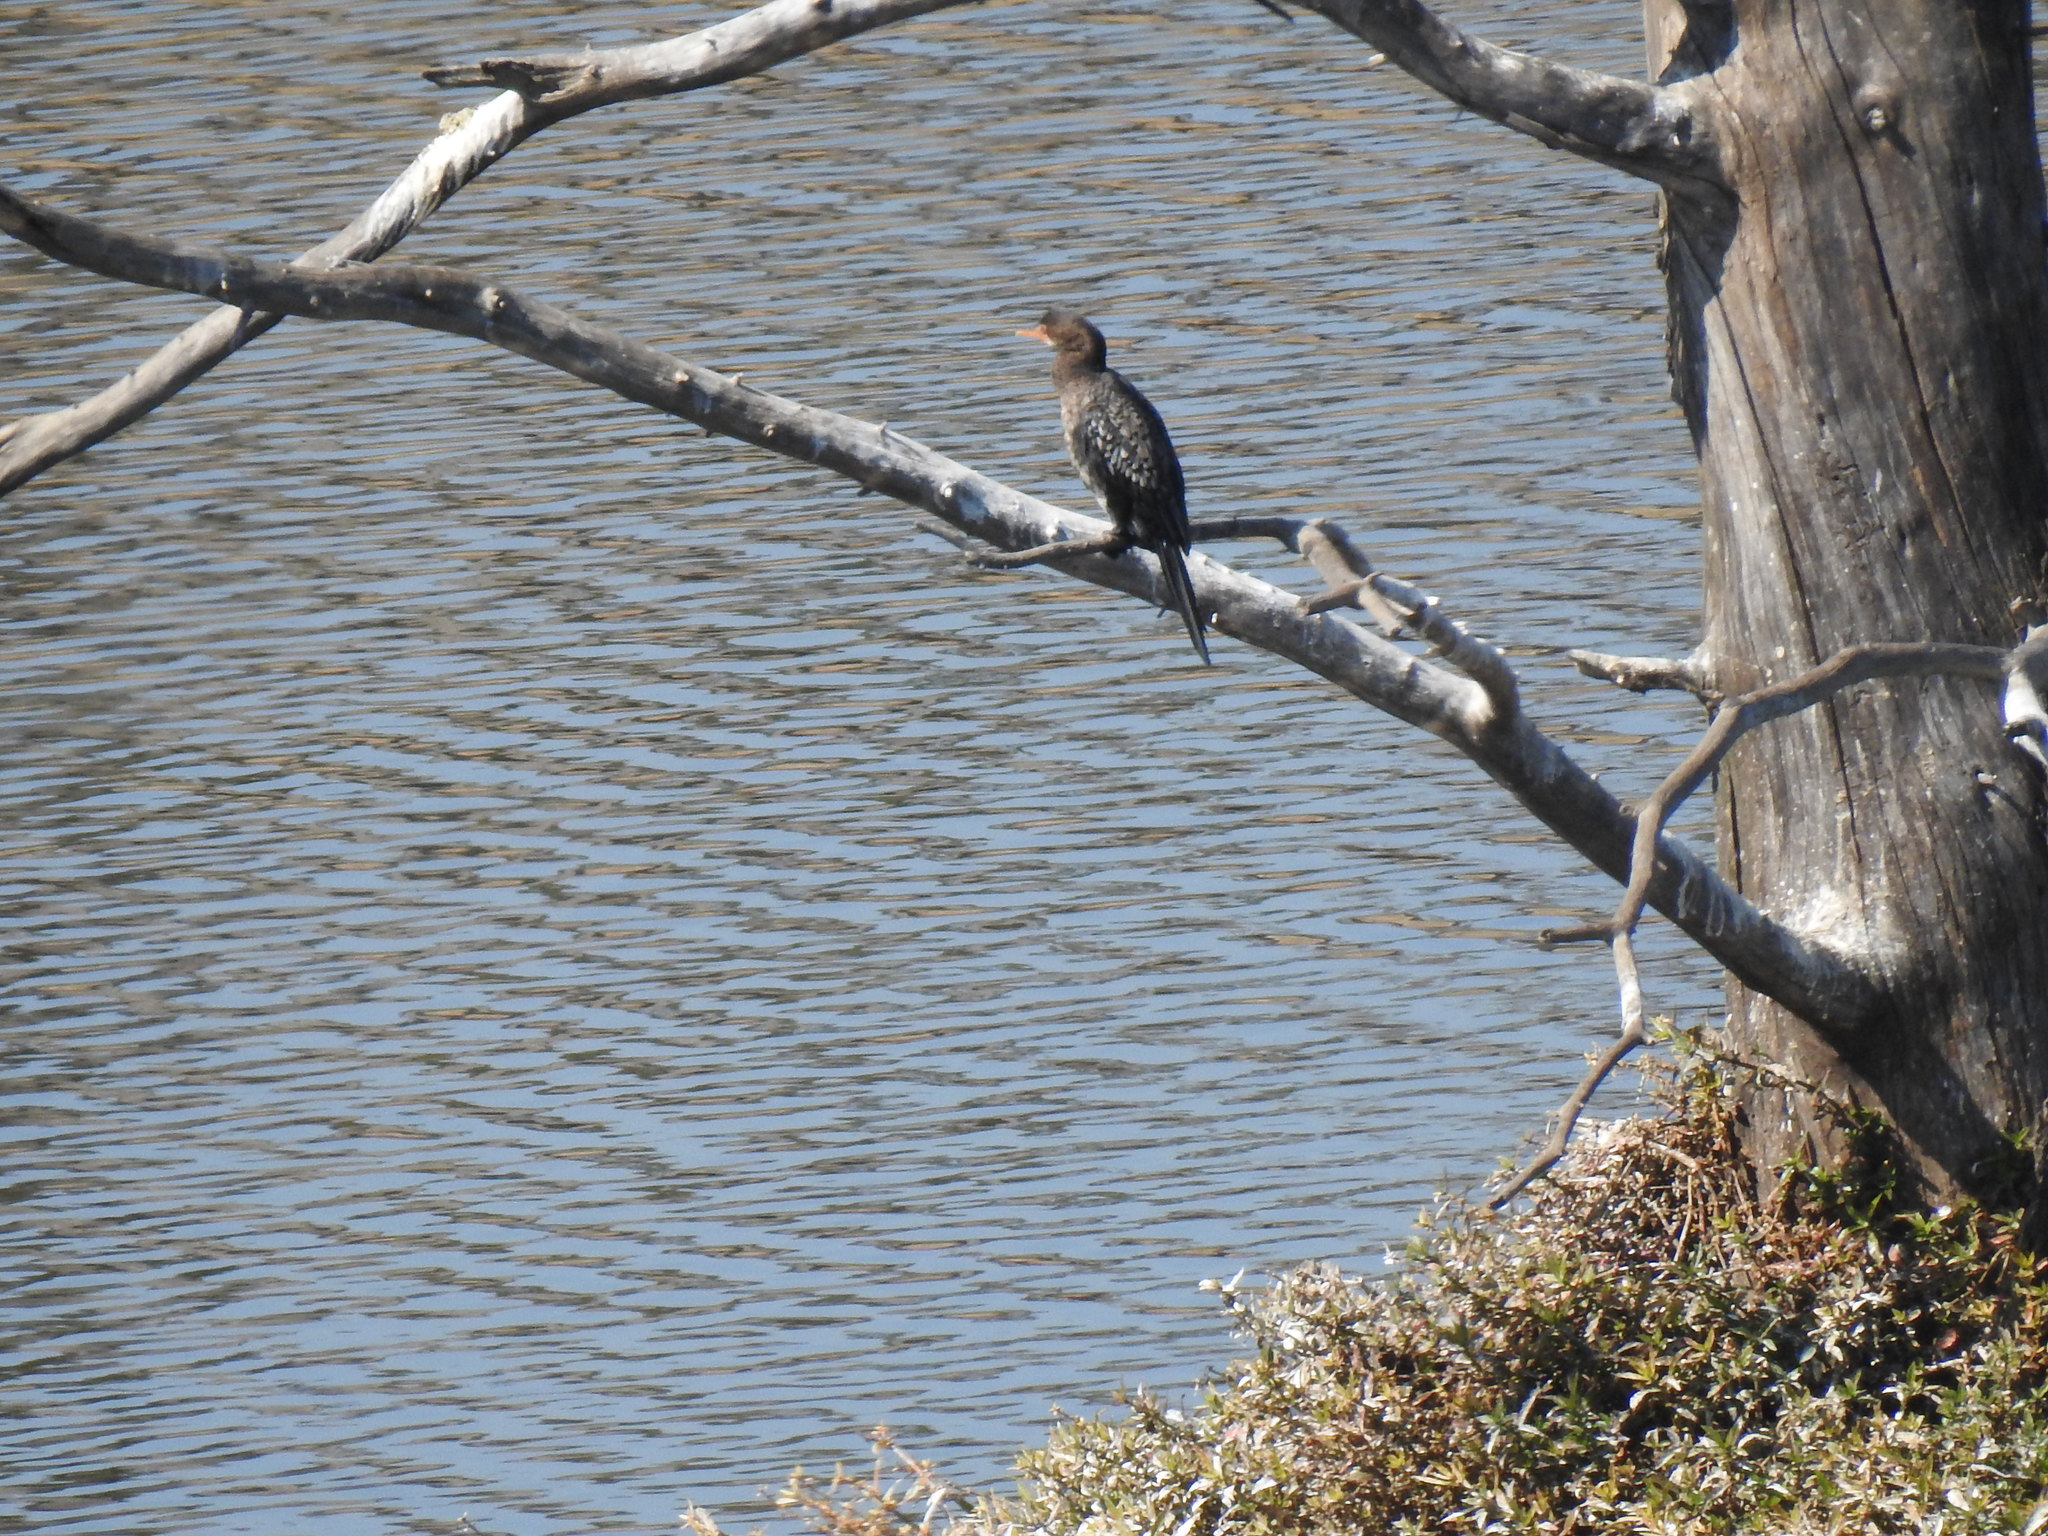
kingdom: Animalia
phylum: Chordata
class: Aves
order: Suliformes
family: Phalacrocoracidae
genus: Microcarbo
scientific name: Microcarbo africanus
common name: Long-tailed cormorant
